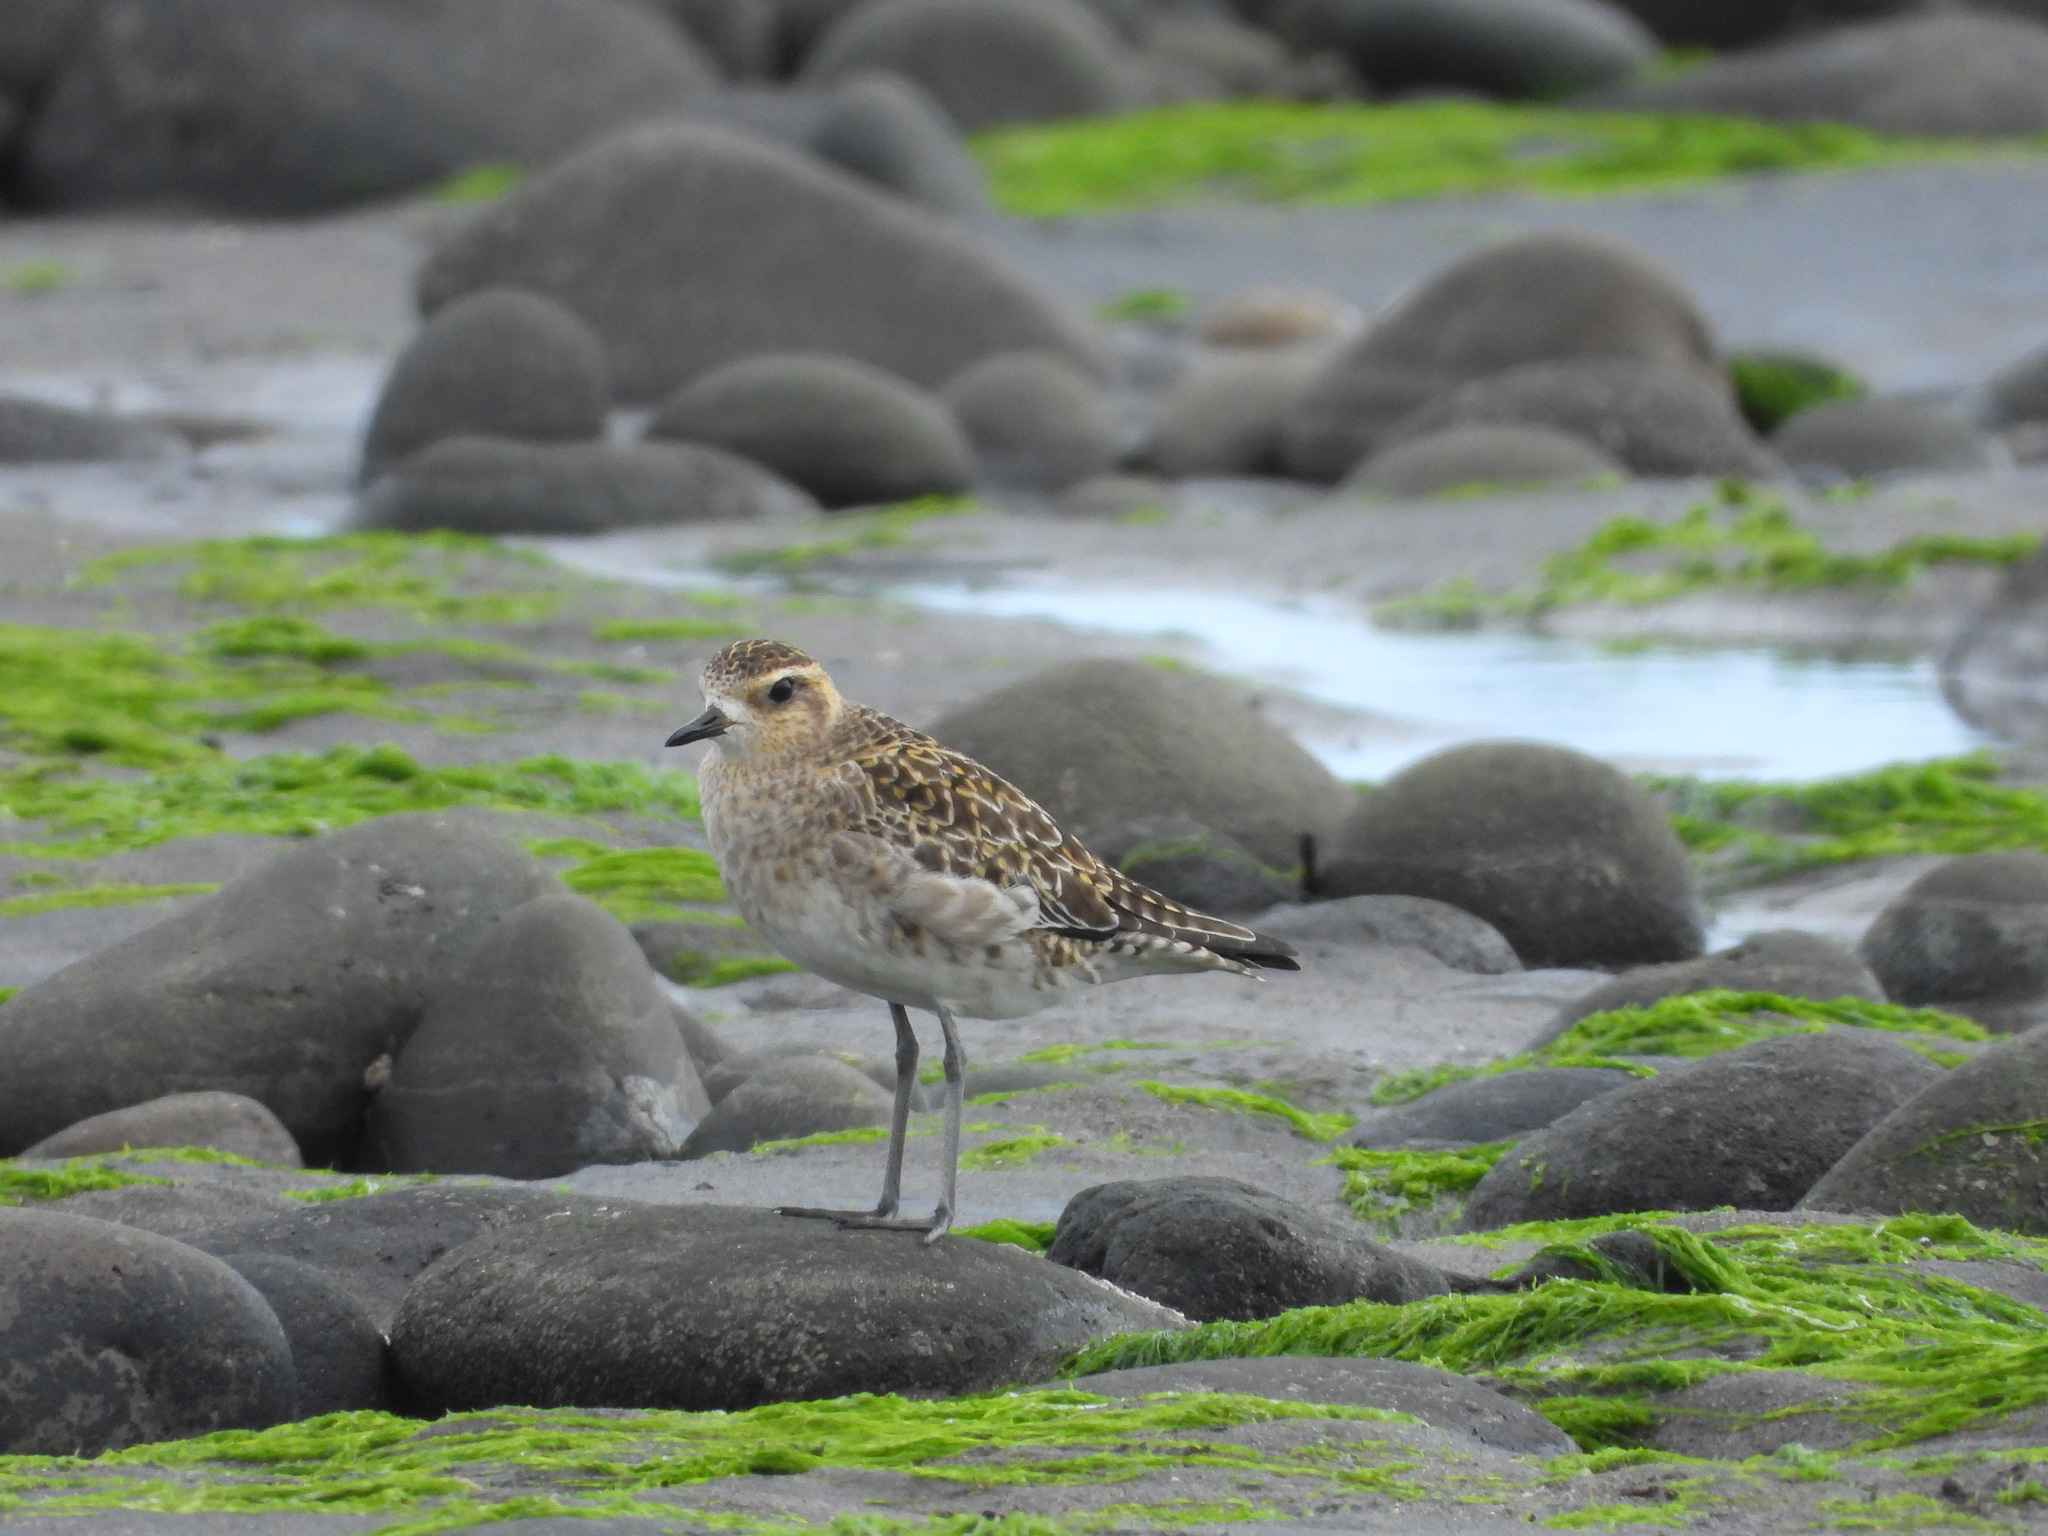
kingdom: Animalia
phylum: Chordata
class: Aves
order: Charadriiformes
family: Charadriidae
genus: Pluvialis
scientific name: Pluvialis fulva
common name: Pacific golden plover
